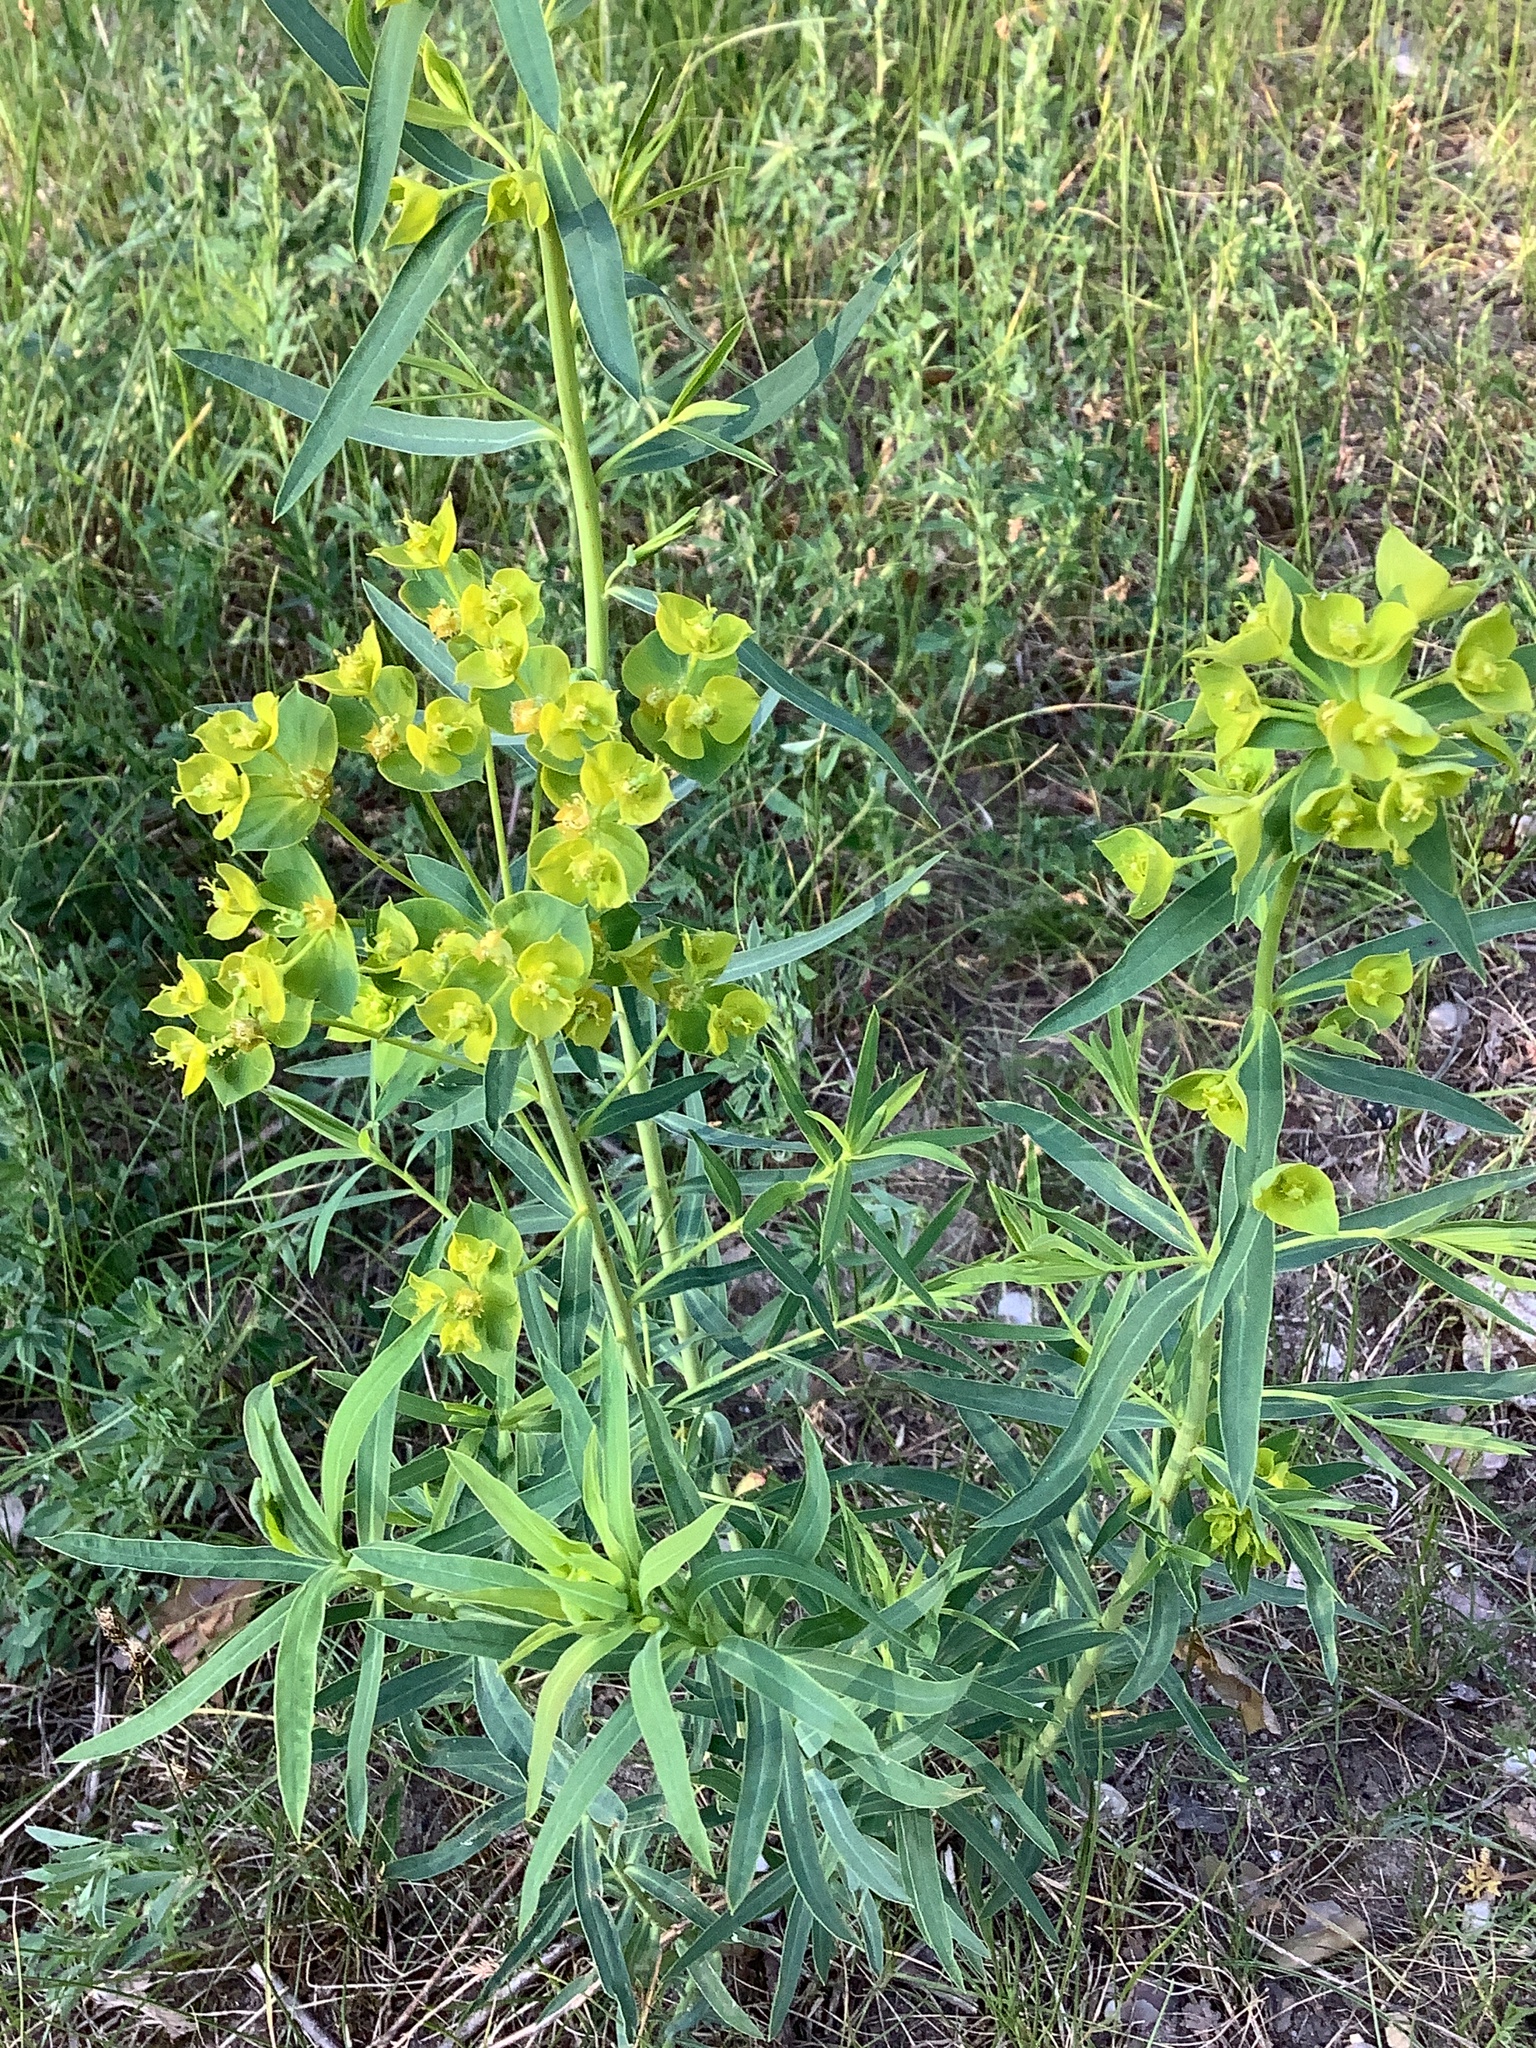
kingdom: Plantae
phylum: Tracheophyta
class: Magnoliopsida
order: Malpighiales
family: Euphorbiaceae
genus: Euphorbia
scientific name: Euphorbia virgata
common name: Leafy spurge
